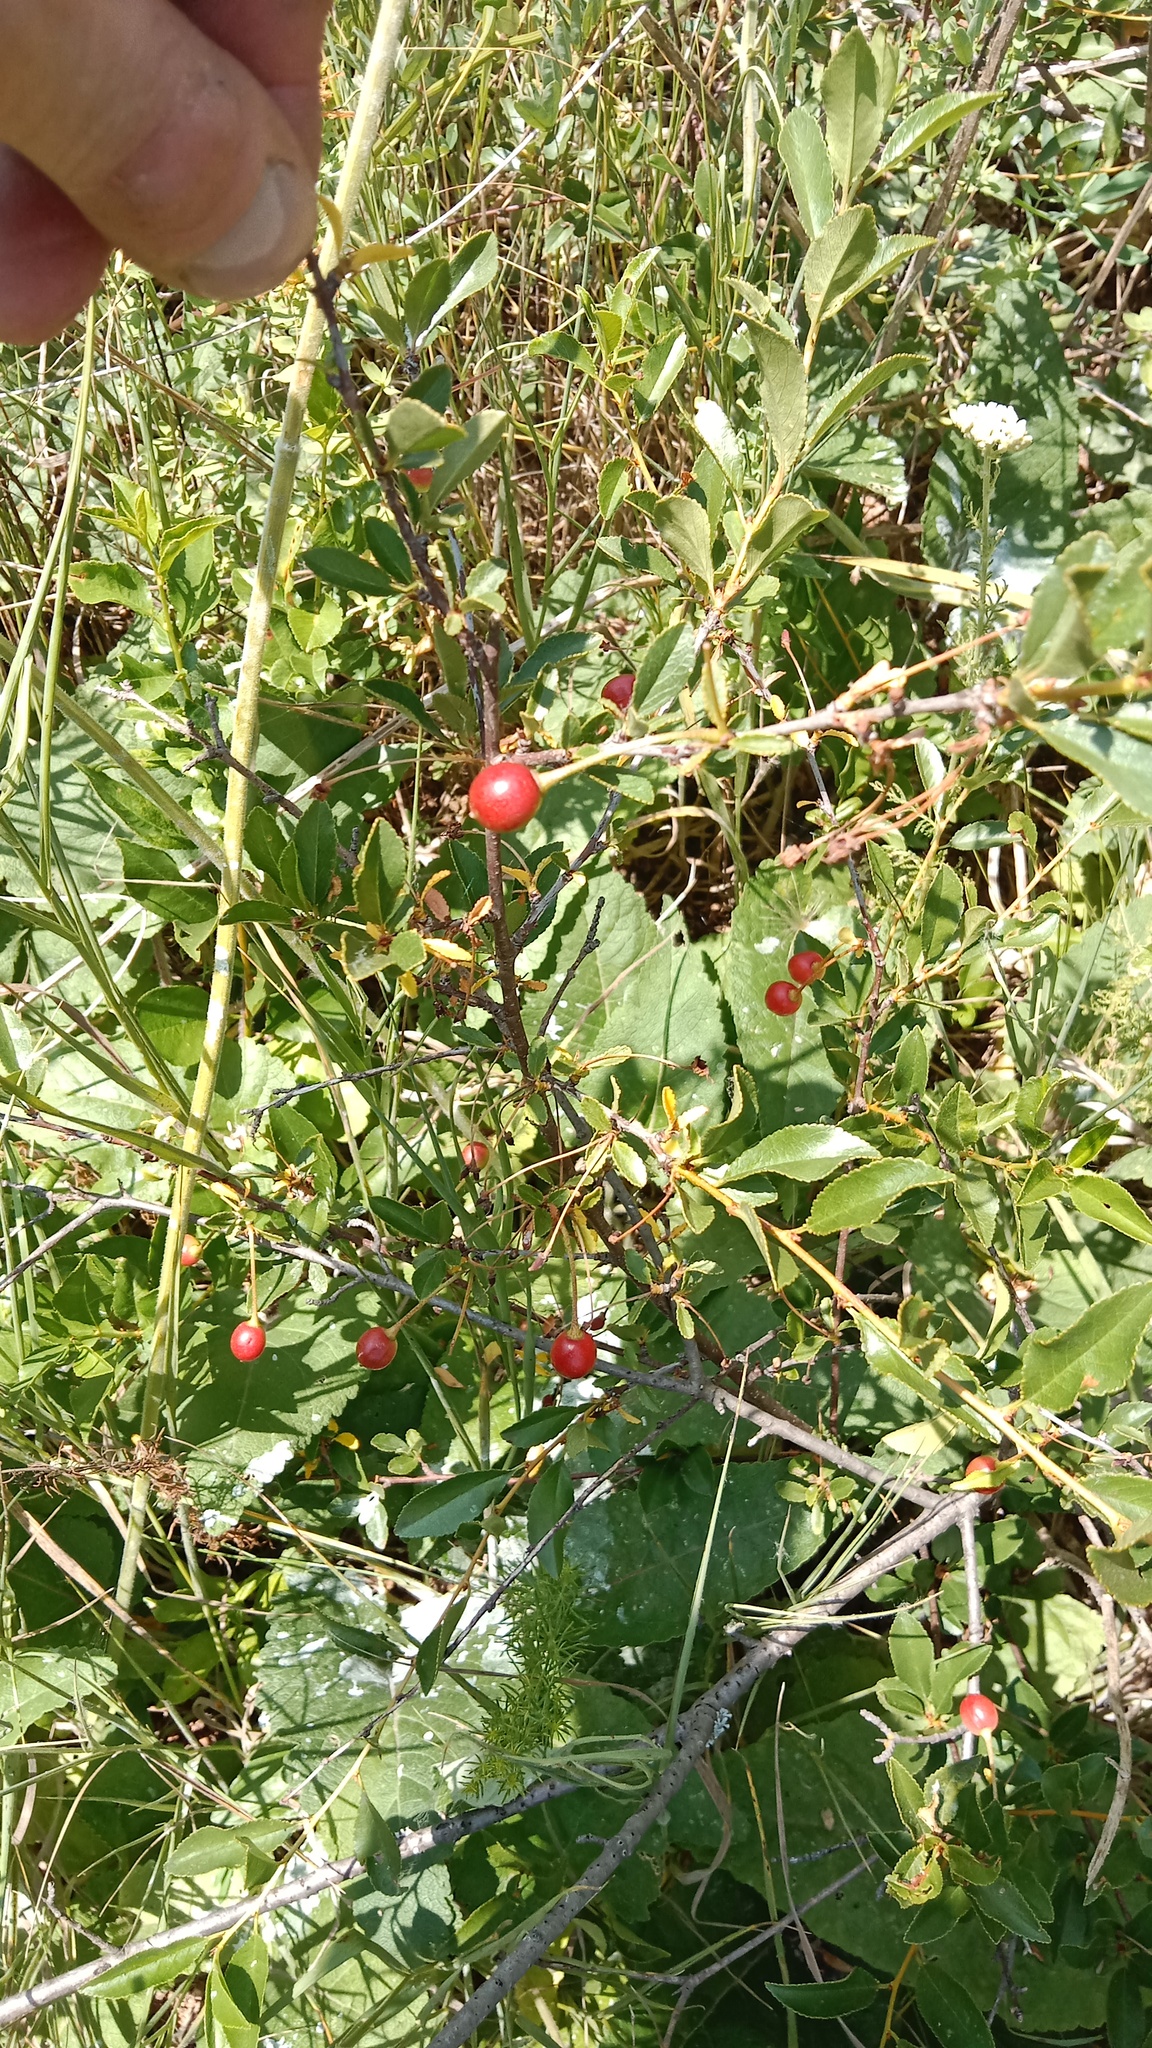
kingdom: Plantae
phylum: Tracheophyta
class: Magnoliopsida
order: Rosales
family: Rosaceae
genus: Prunus
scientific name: Prunus fruticosa
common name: European dwarf cherry
